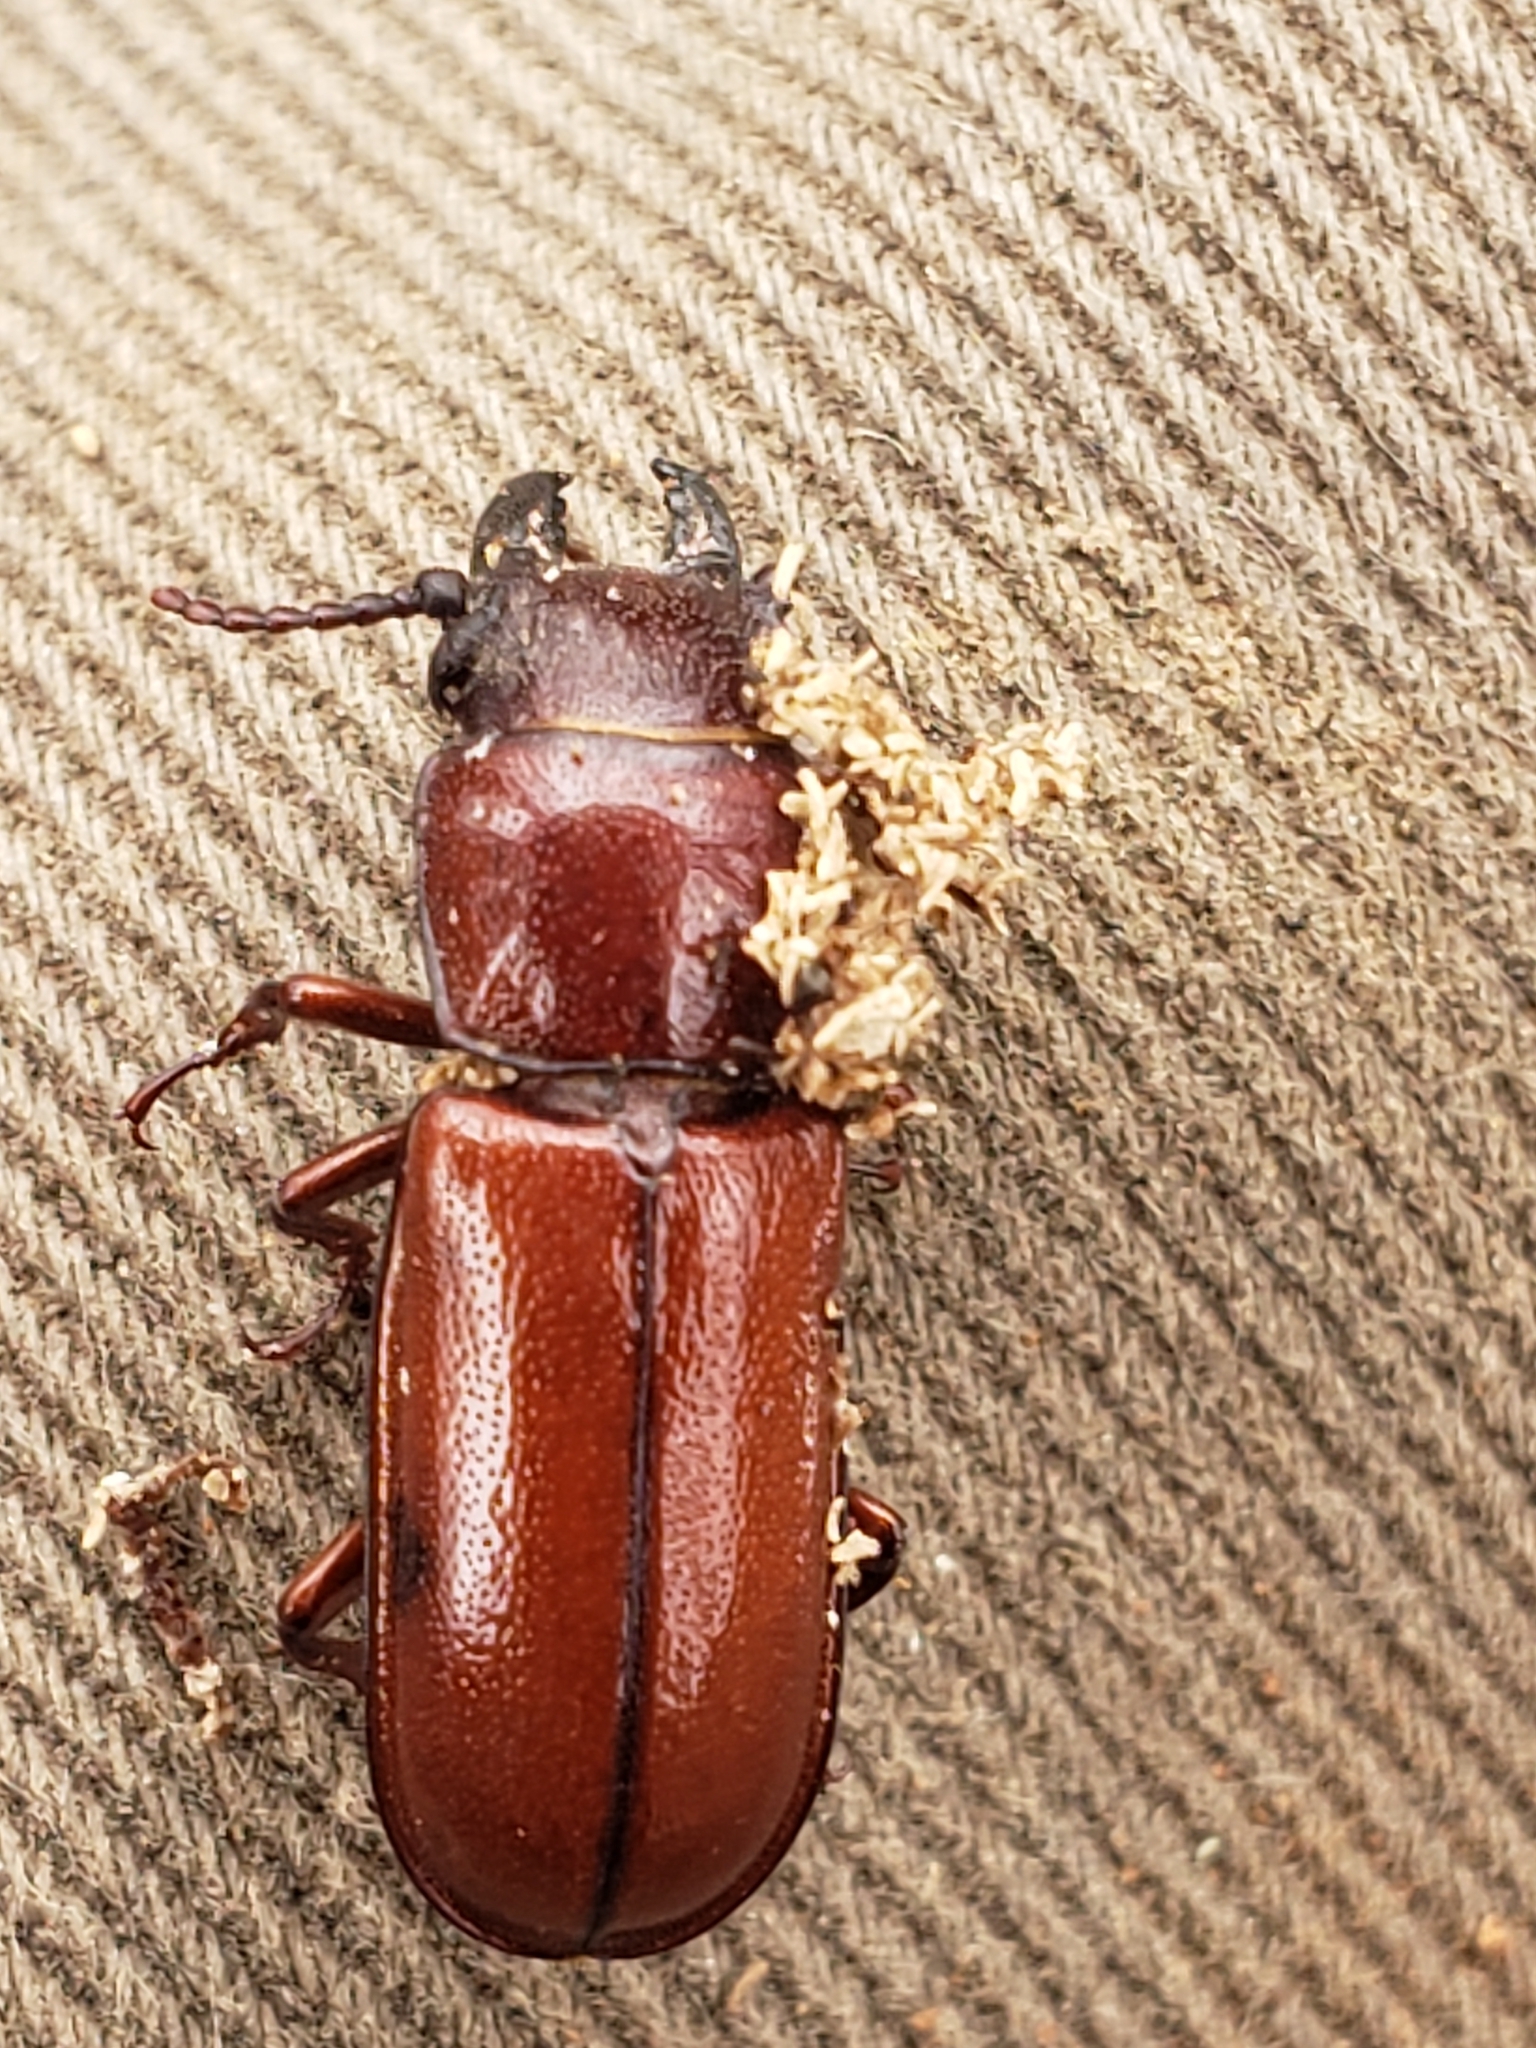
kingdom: Animalia
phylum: Arthropoda
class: Insecta
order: Coleoptera
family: Cerambycidae
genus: Neandra
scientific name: Neandra brunnea
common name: Pole borer
